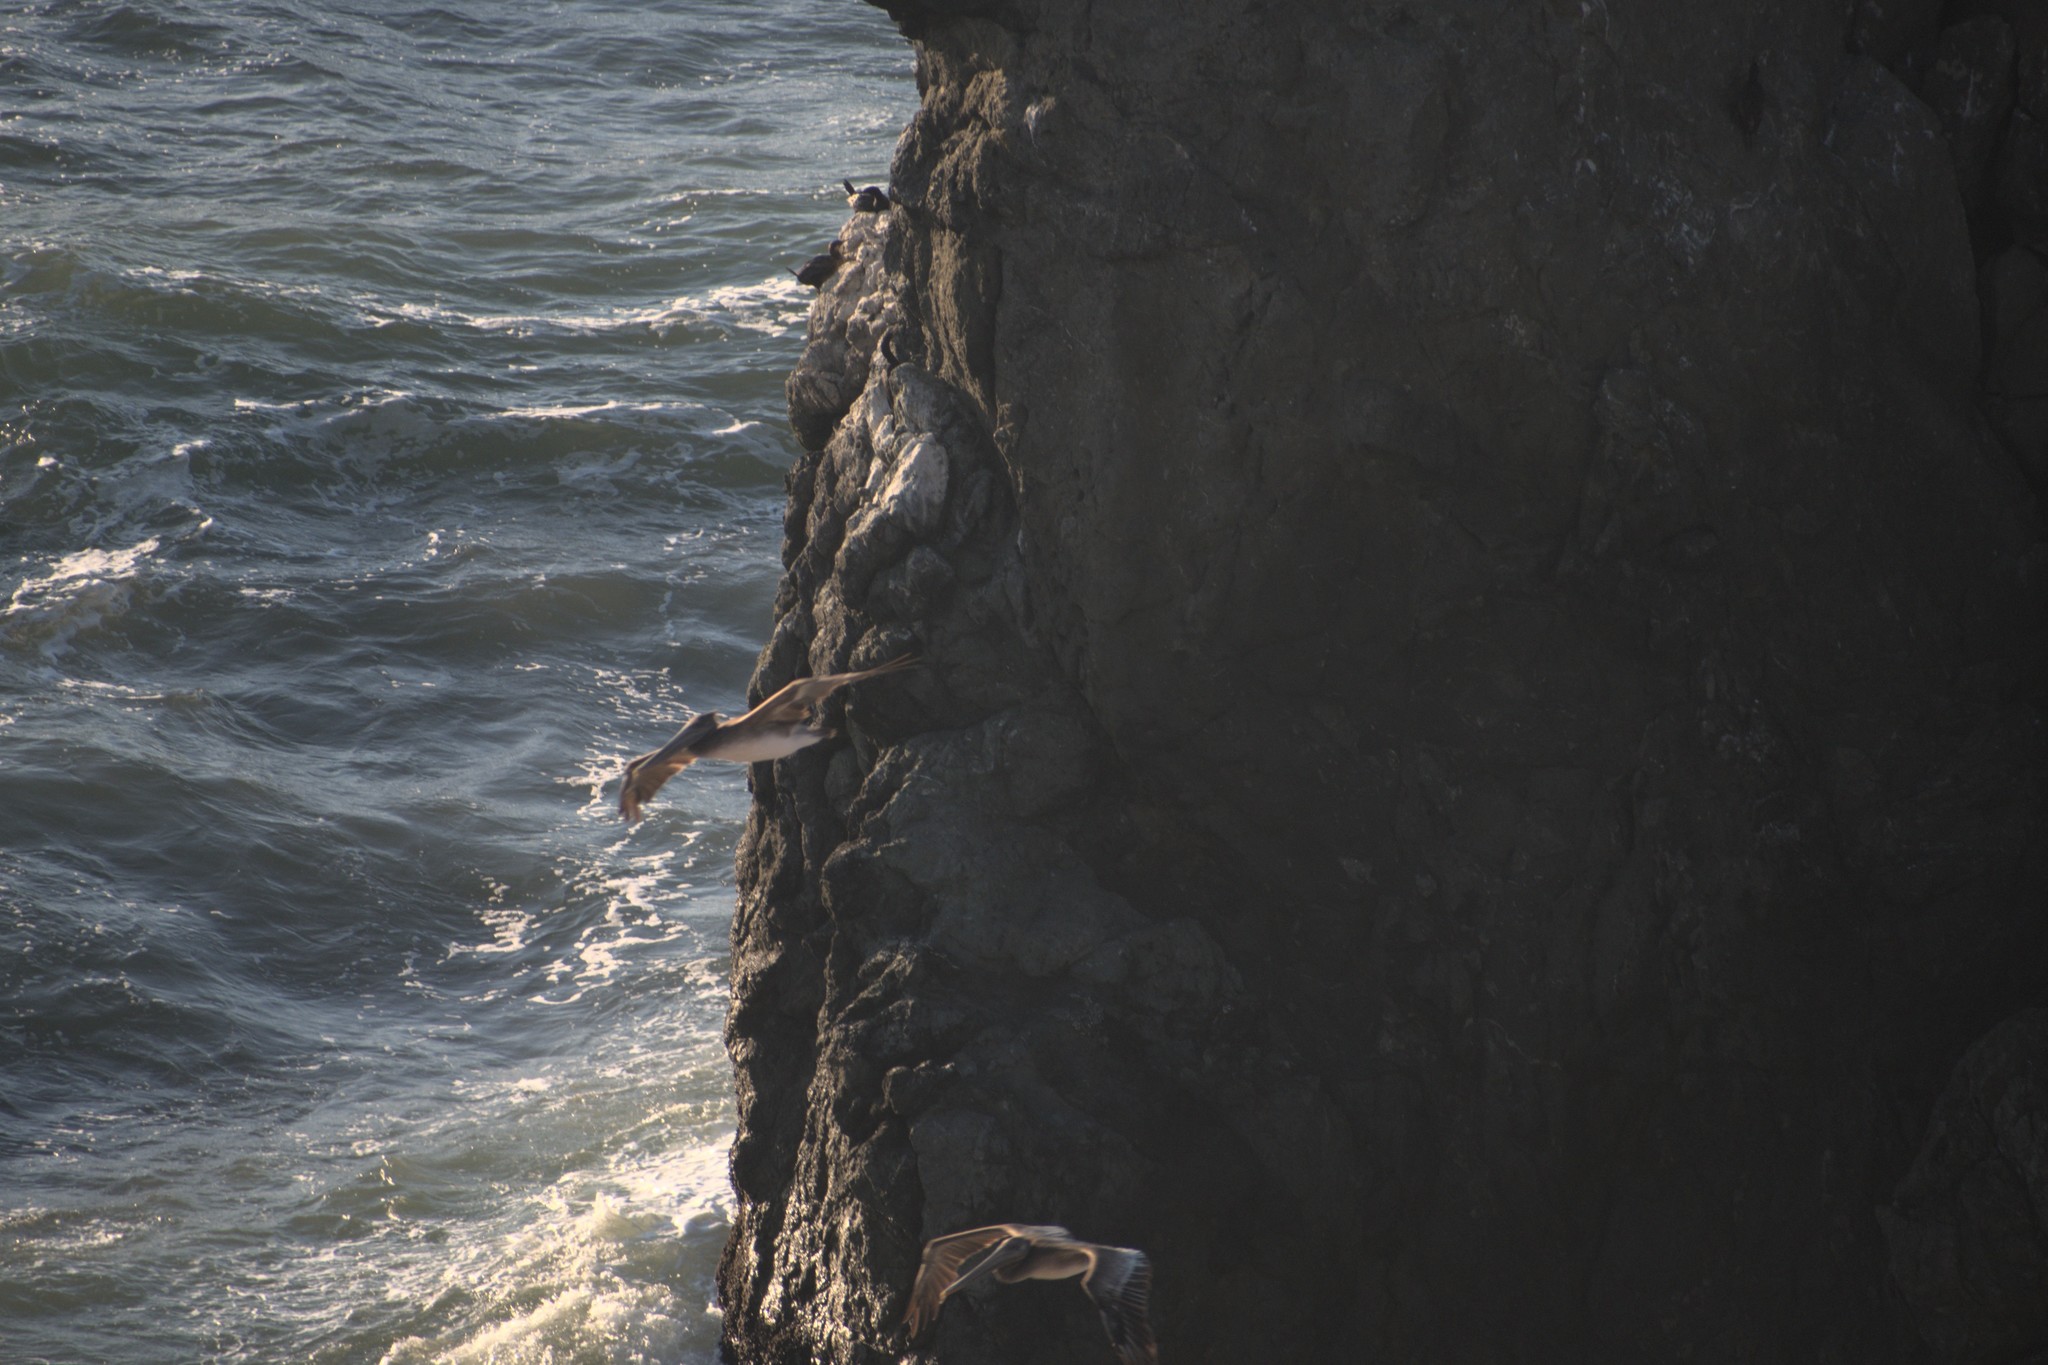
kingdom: Animalia
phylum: Chordata
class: Aves
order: Pelecaniformes
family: Pelecanidae
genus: Pelecanus
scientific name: Pelecanus occidentalis
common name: Brown pelican
